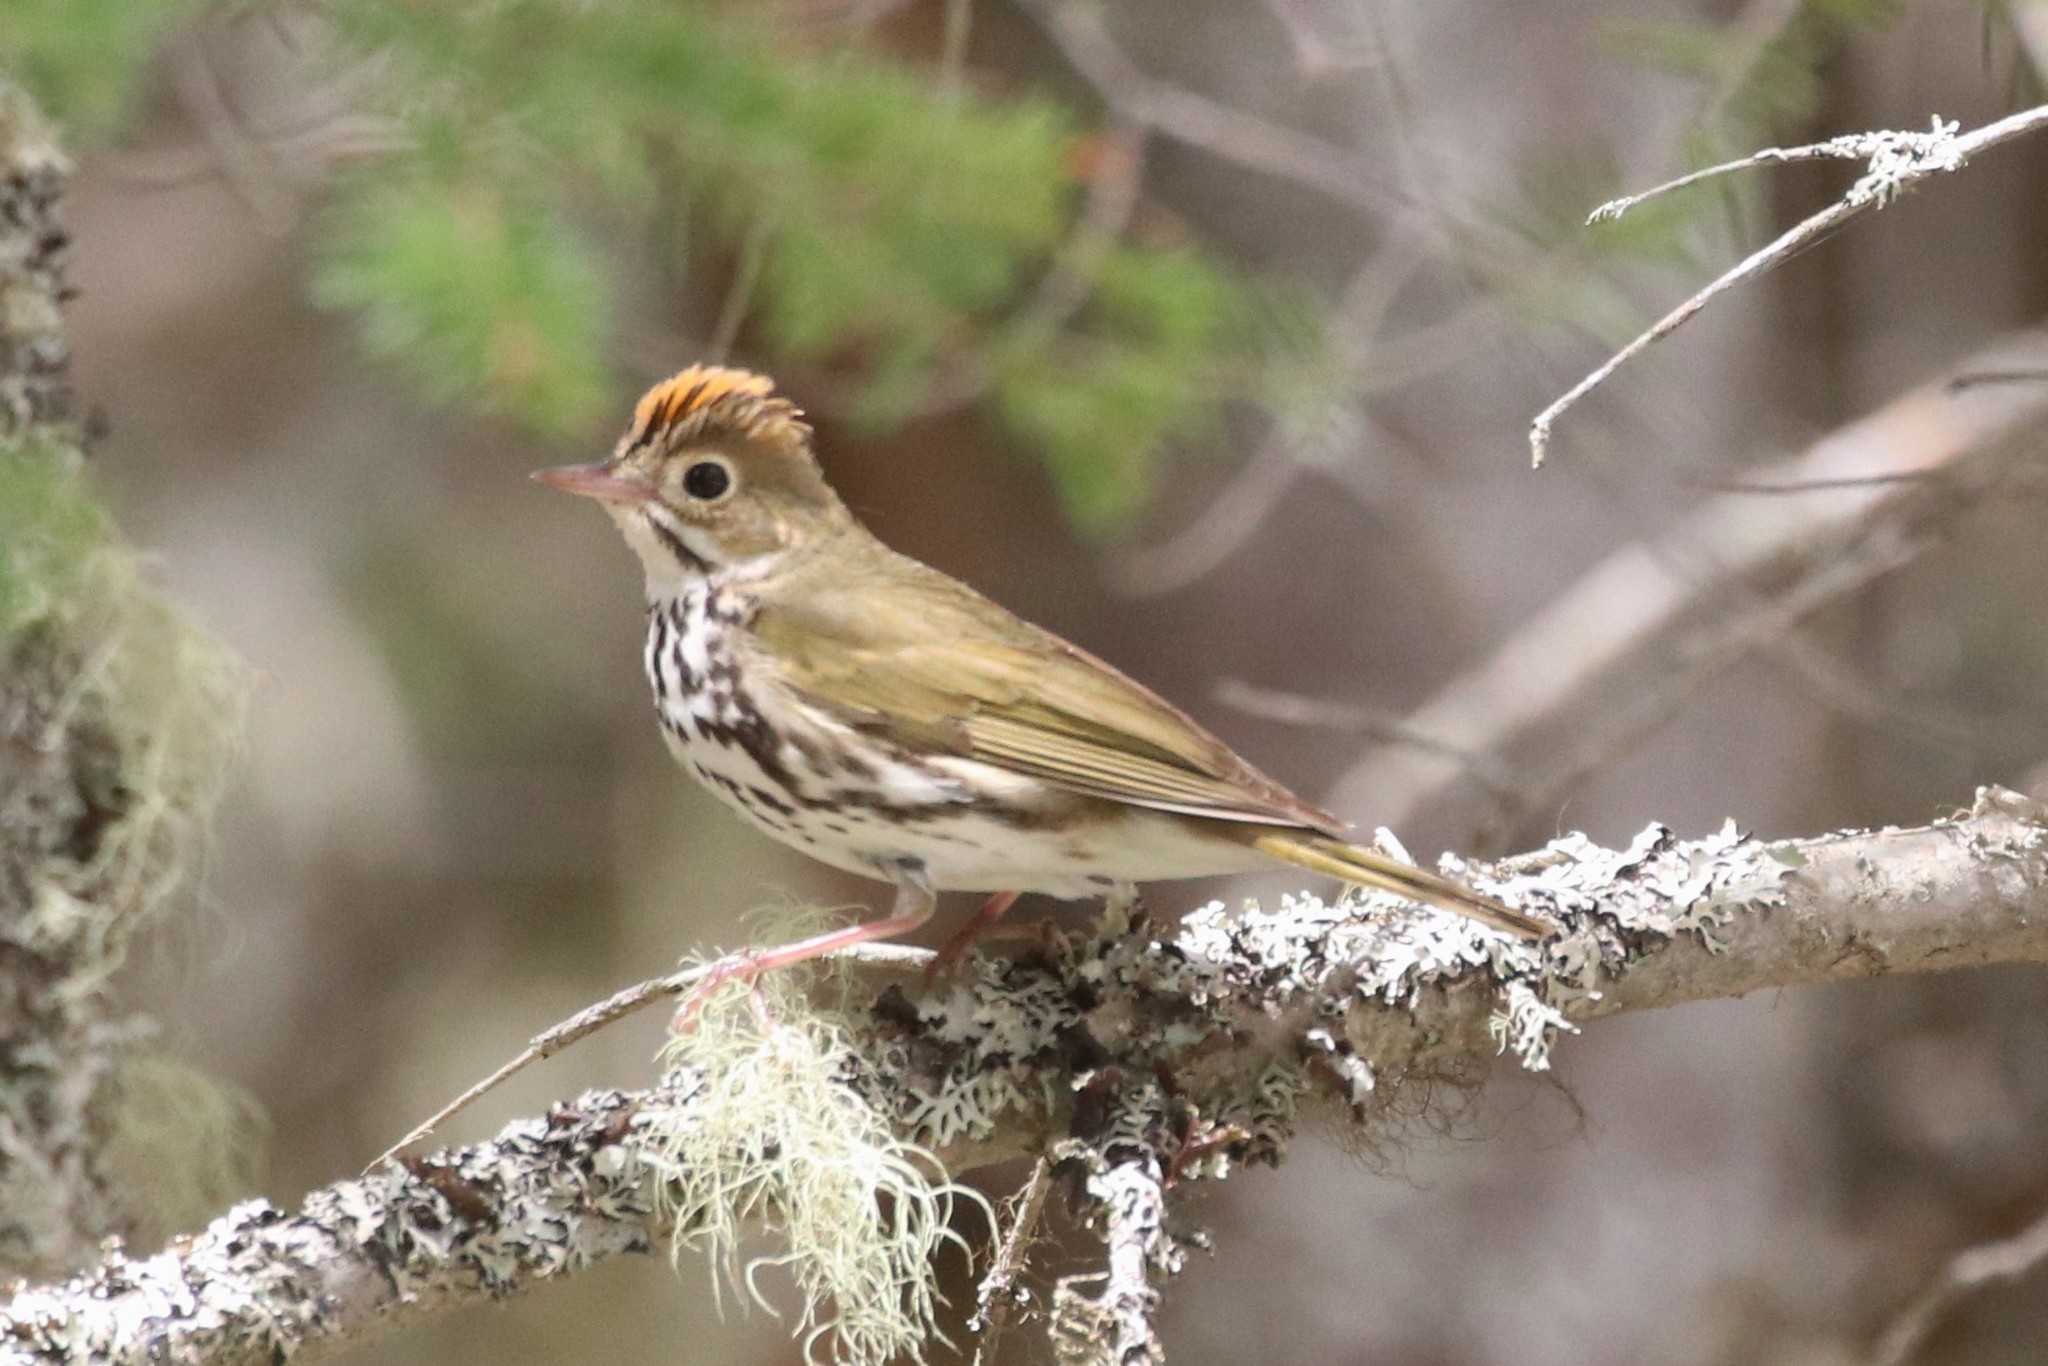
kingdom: Animalia
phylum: Chordata
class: Aves
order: Passeriformes
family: Parulidae
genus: Seiurus
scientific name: Seiurus aurocapilla
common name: Ovenbird
